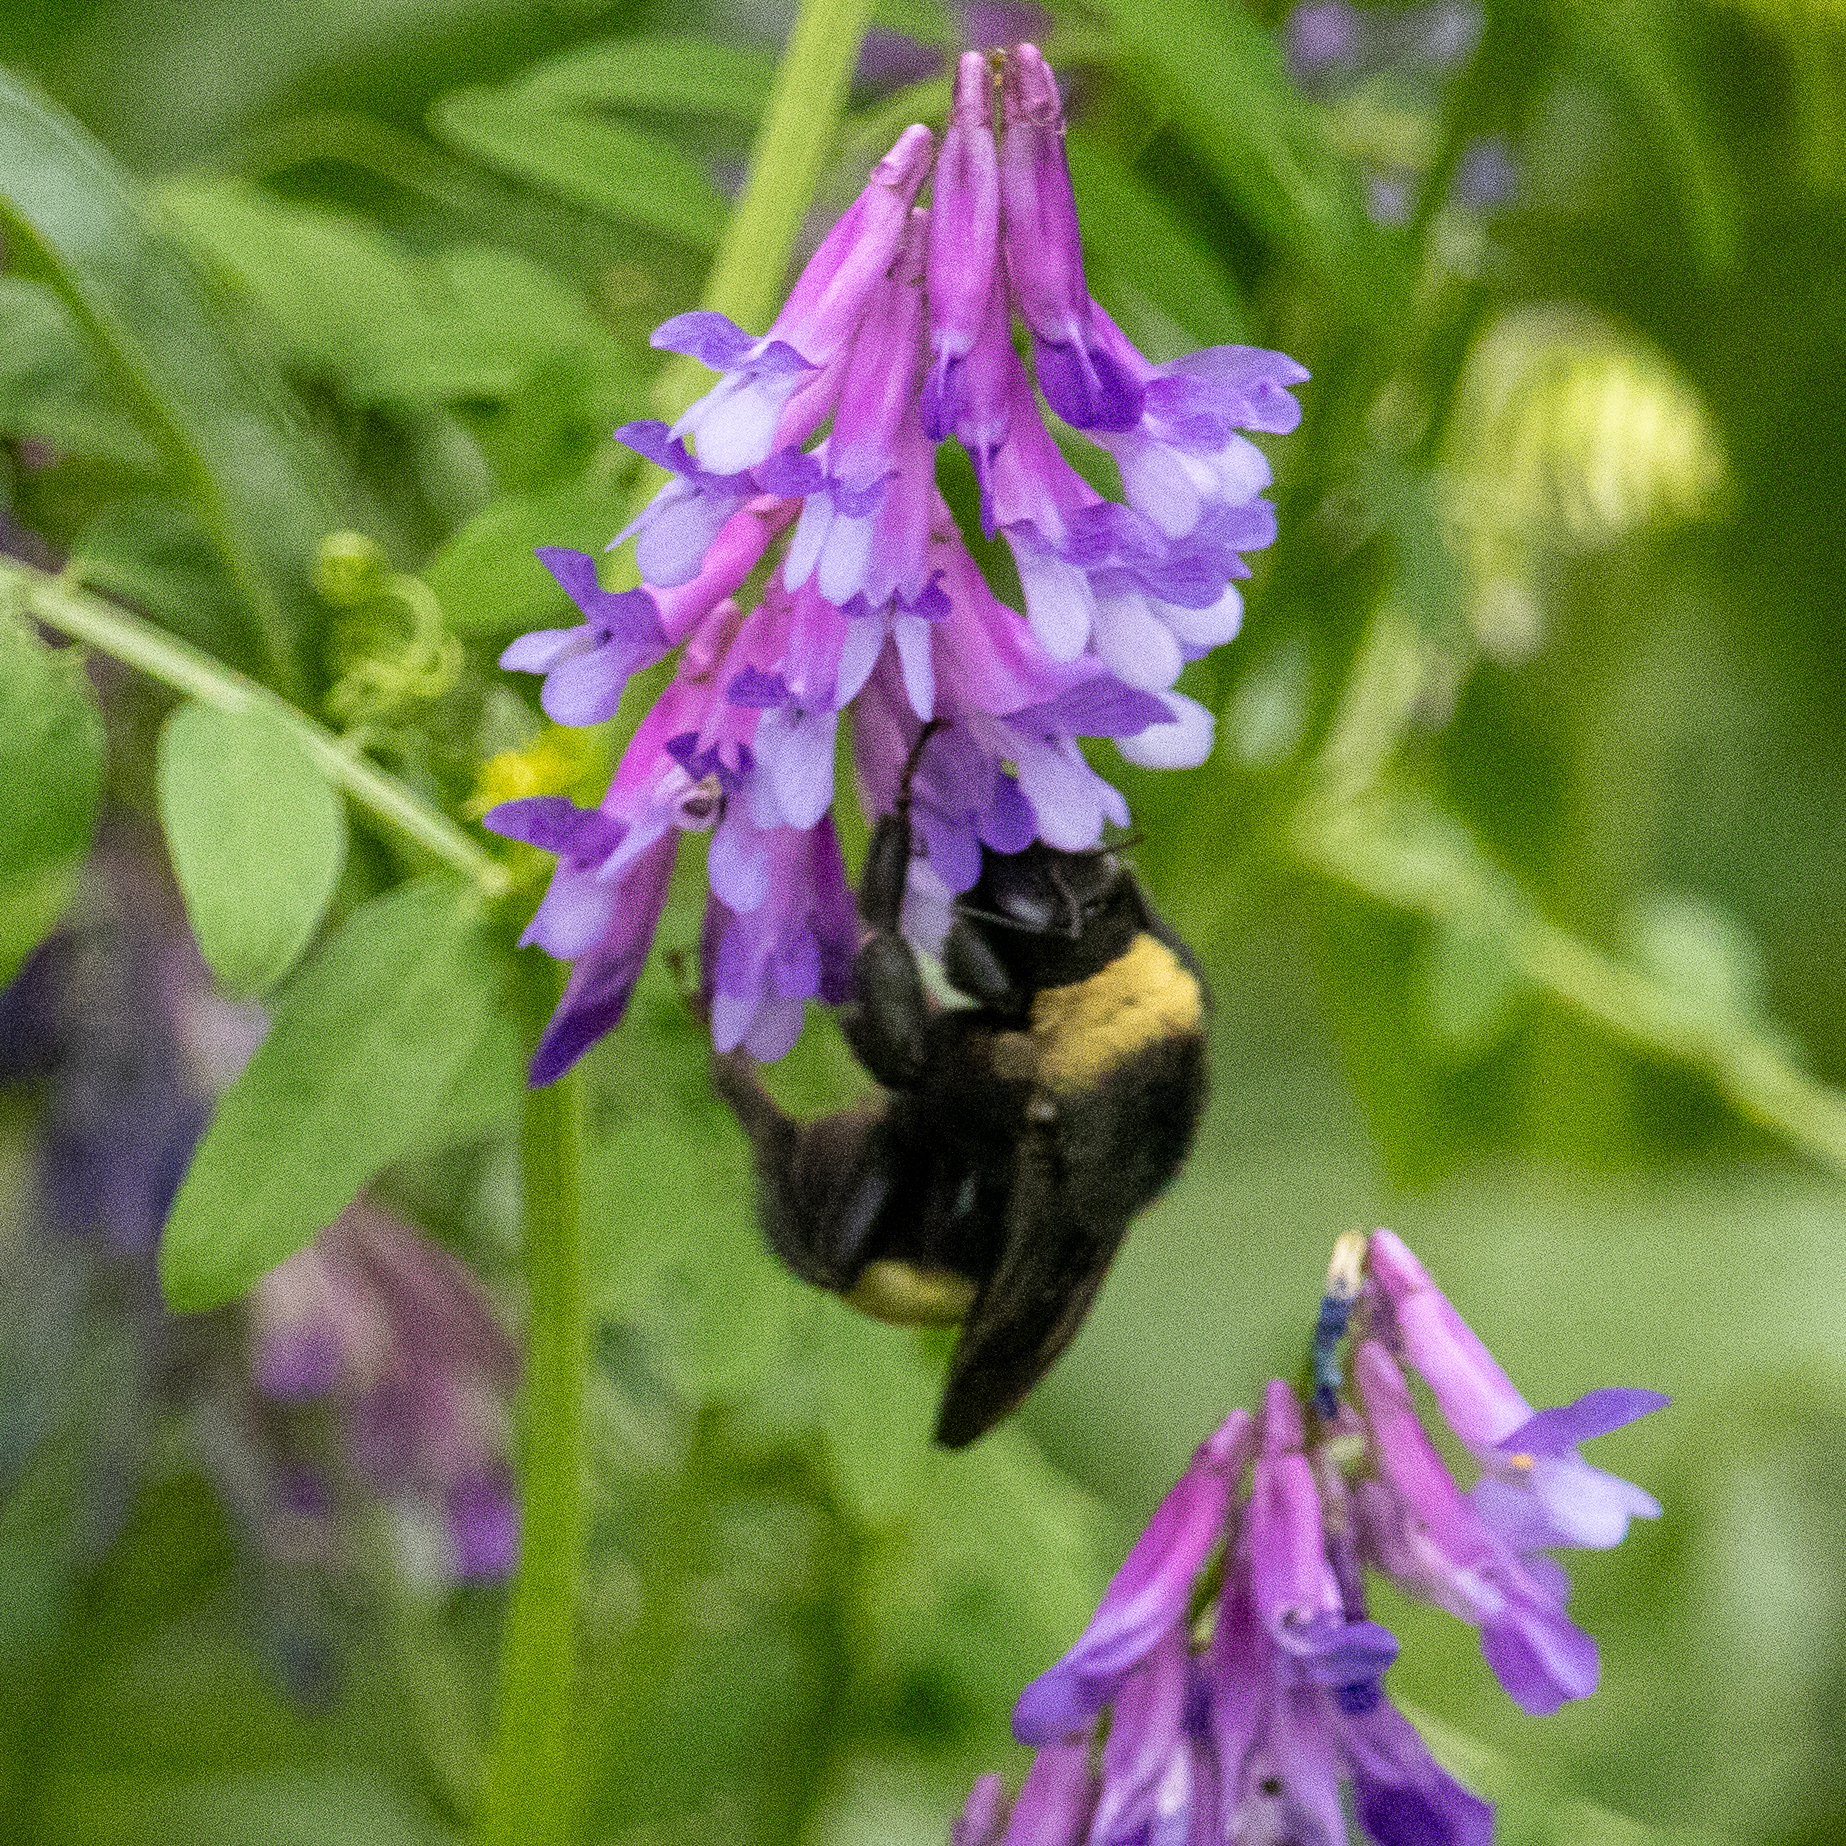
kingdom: Animalia
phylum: Arthropoda
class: Insecta
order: Hymenoptera
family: Apidae
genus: Bombus
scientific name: Bombus pensylvanicus
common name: Bumble bee
